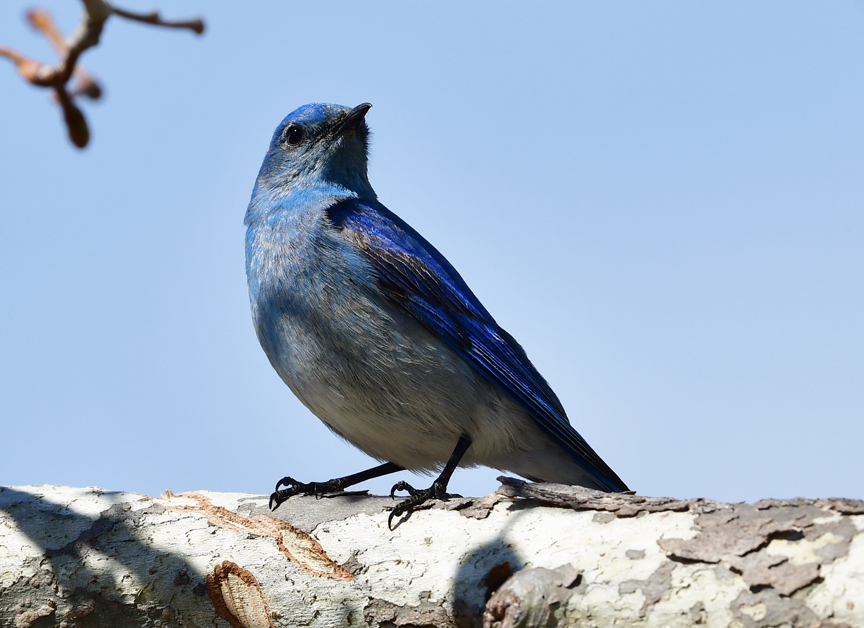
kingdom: Animalia
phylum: Chordata
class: Aves
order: Passeriformes
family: Turdidae
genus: Sialia
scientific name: Sialia currucoides
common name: Mountain bluebird
